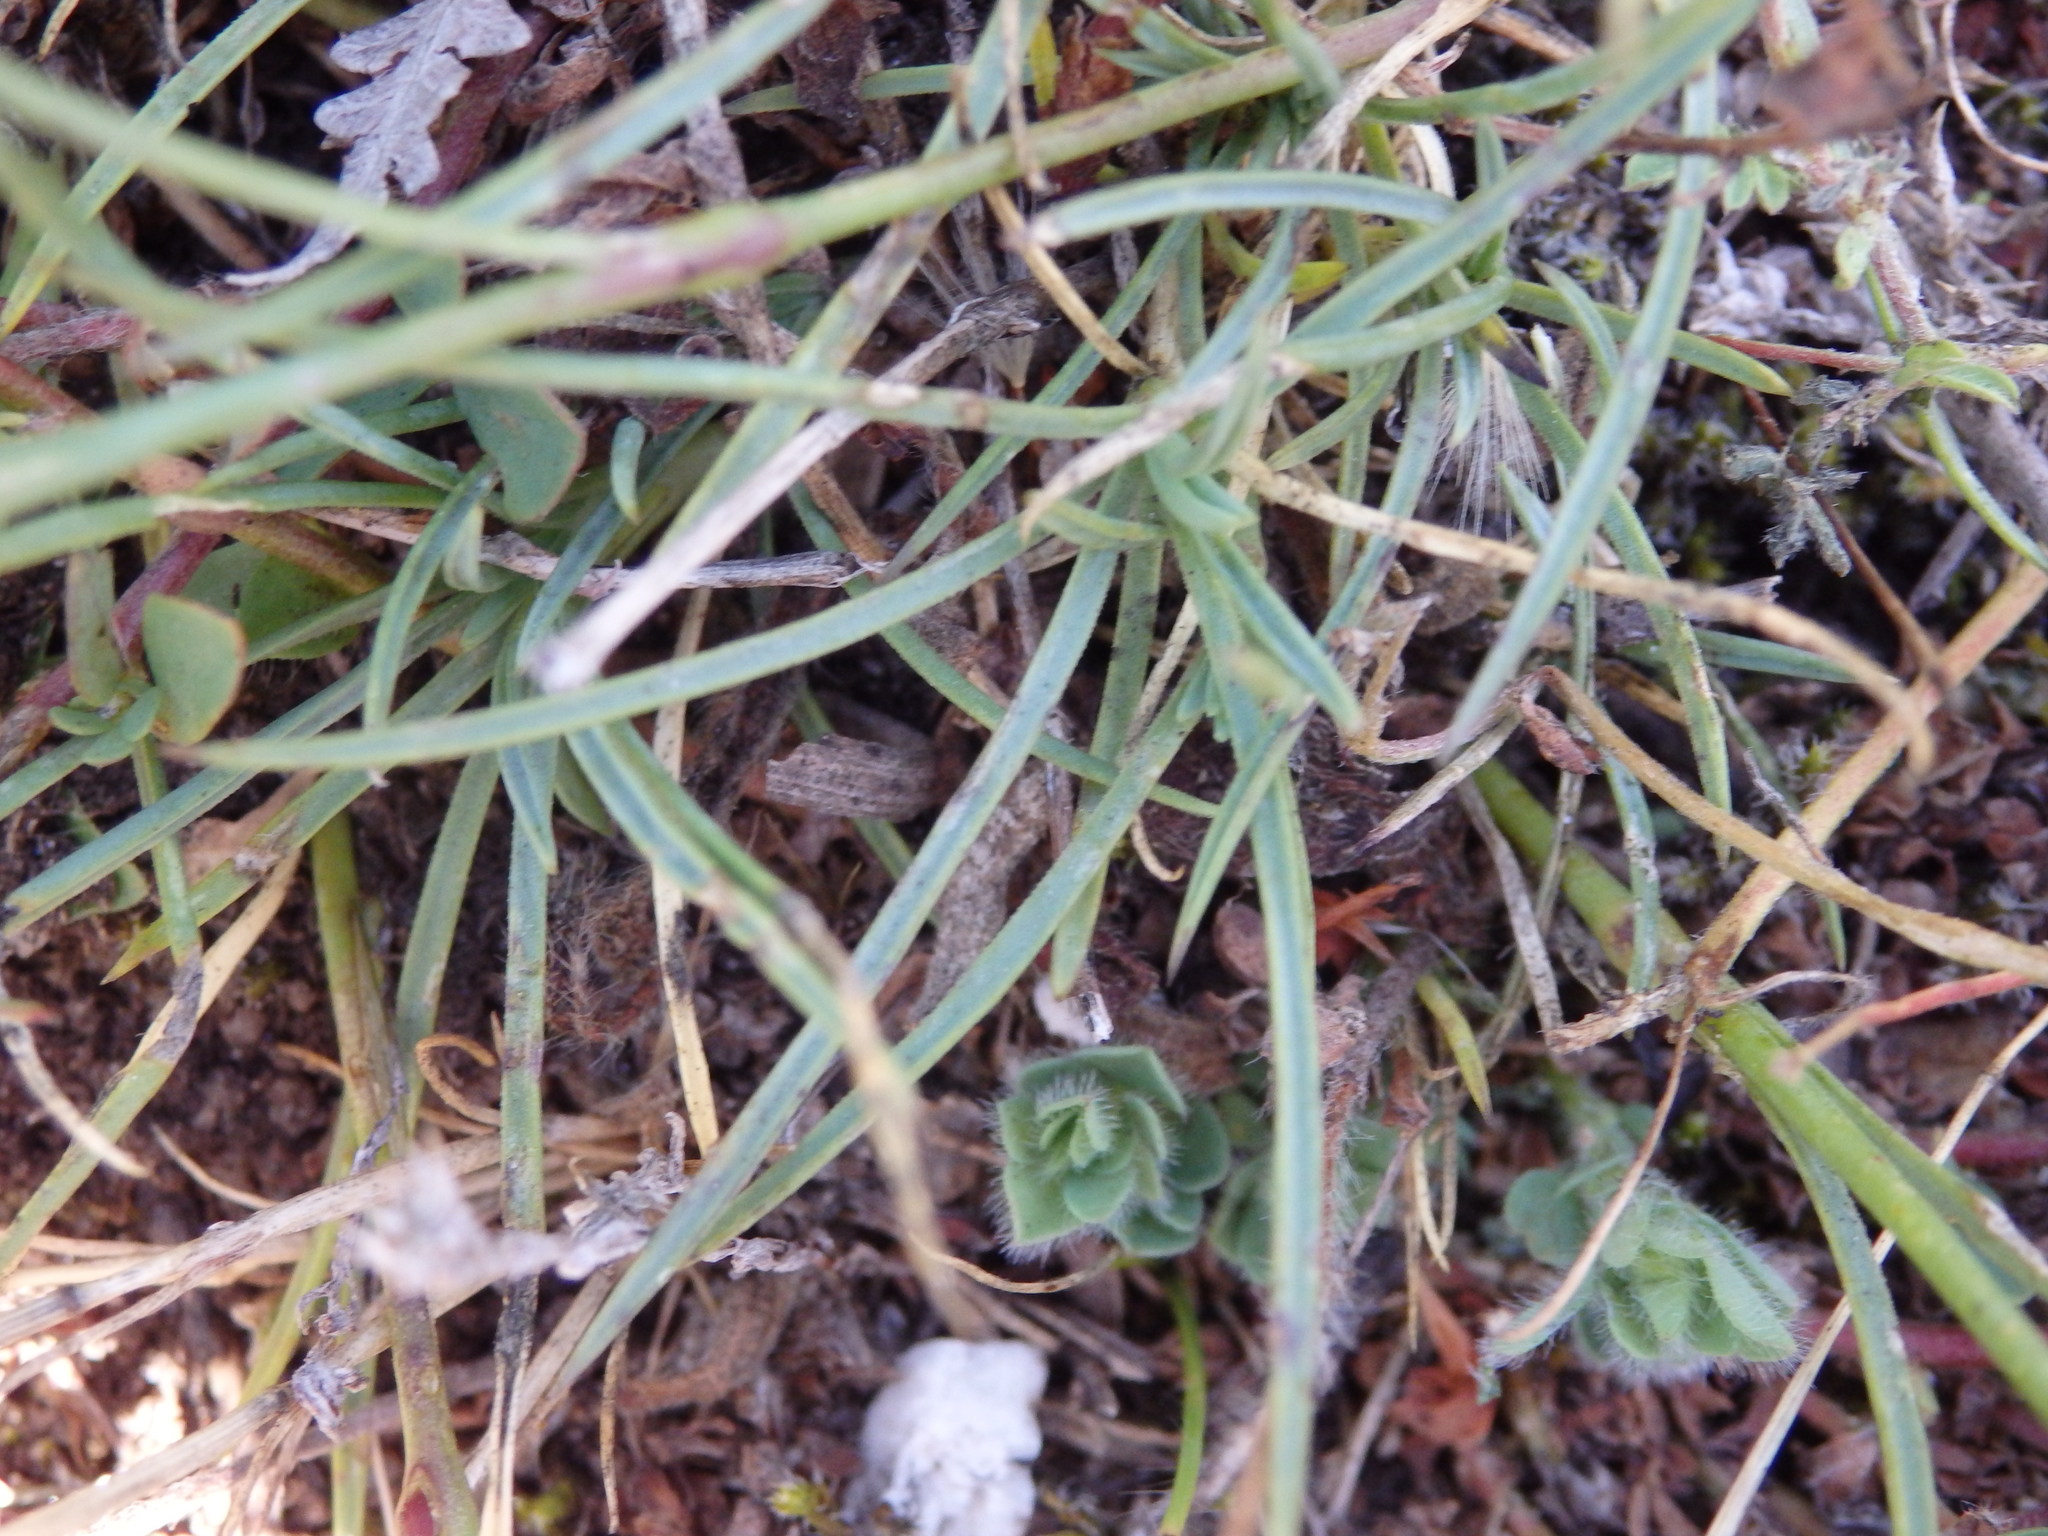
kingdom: Plantae
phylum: Tracheophyta
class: Magnoliopsida
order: Caryophyllales
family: Caryophyllaceae
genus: Dianthus
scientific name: Dianthus lusitanus
